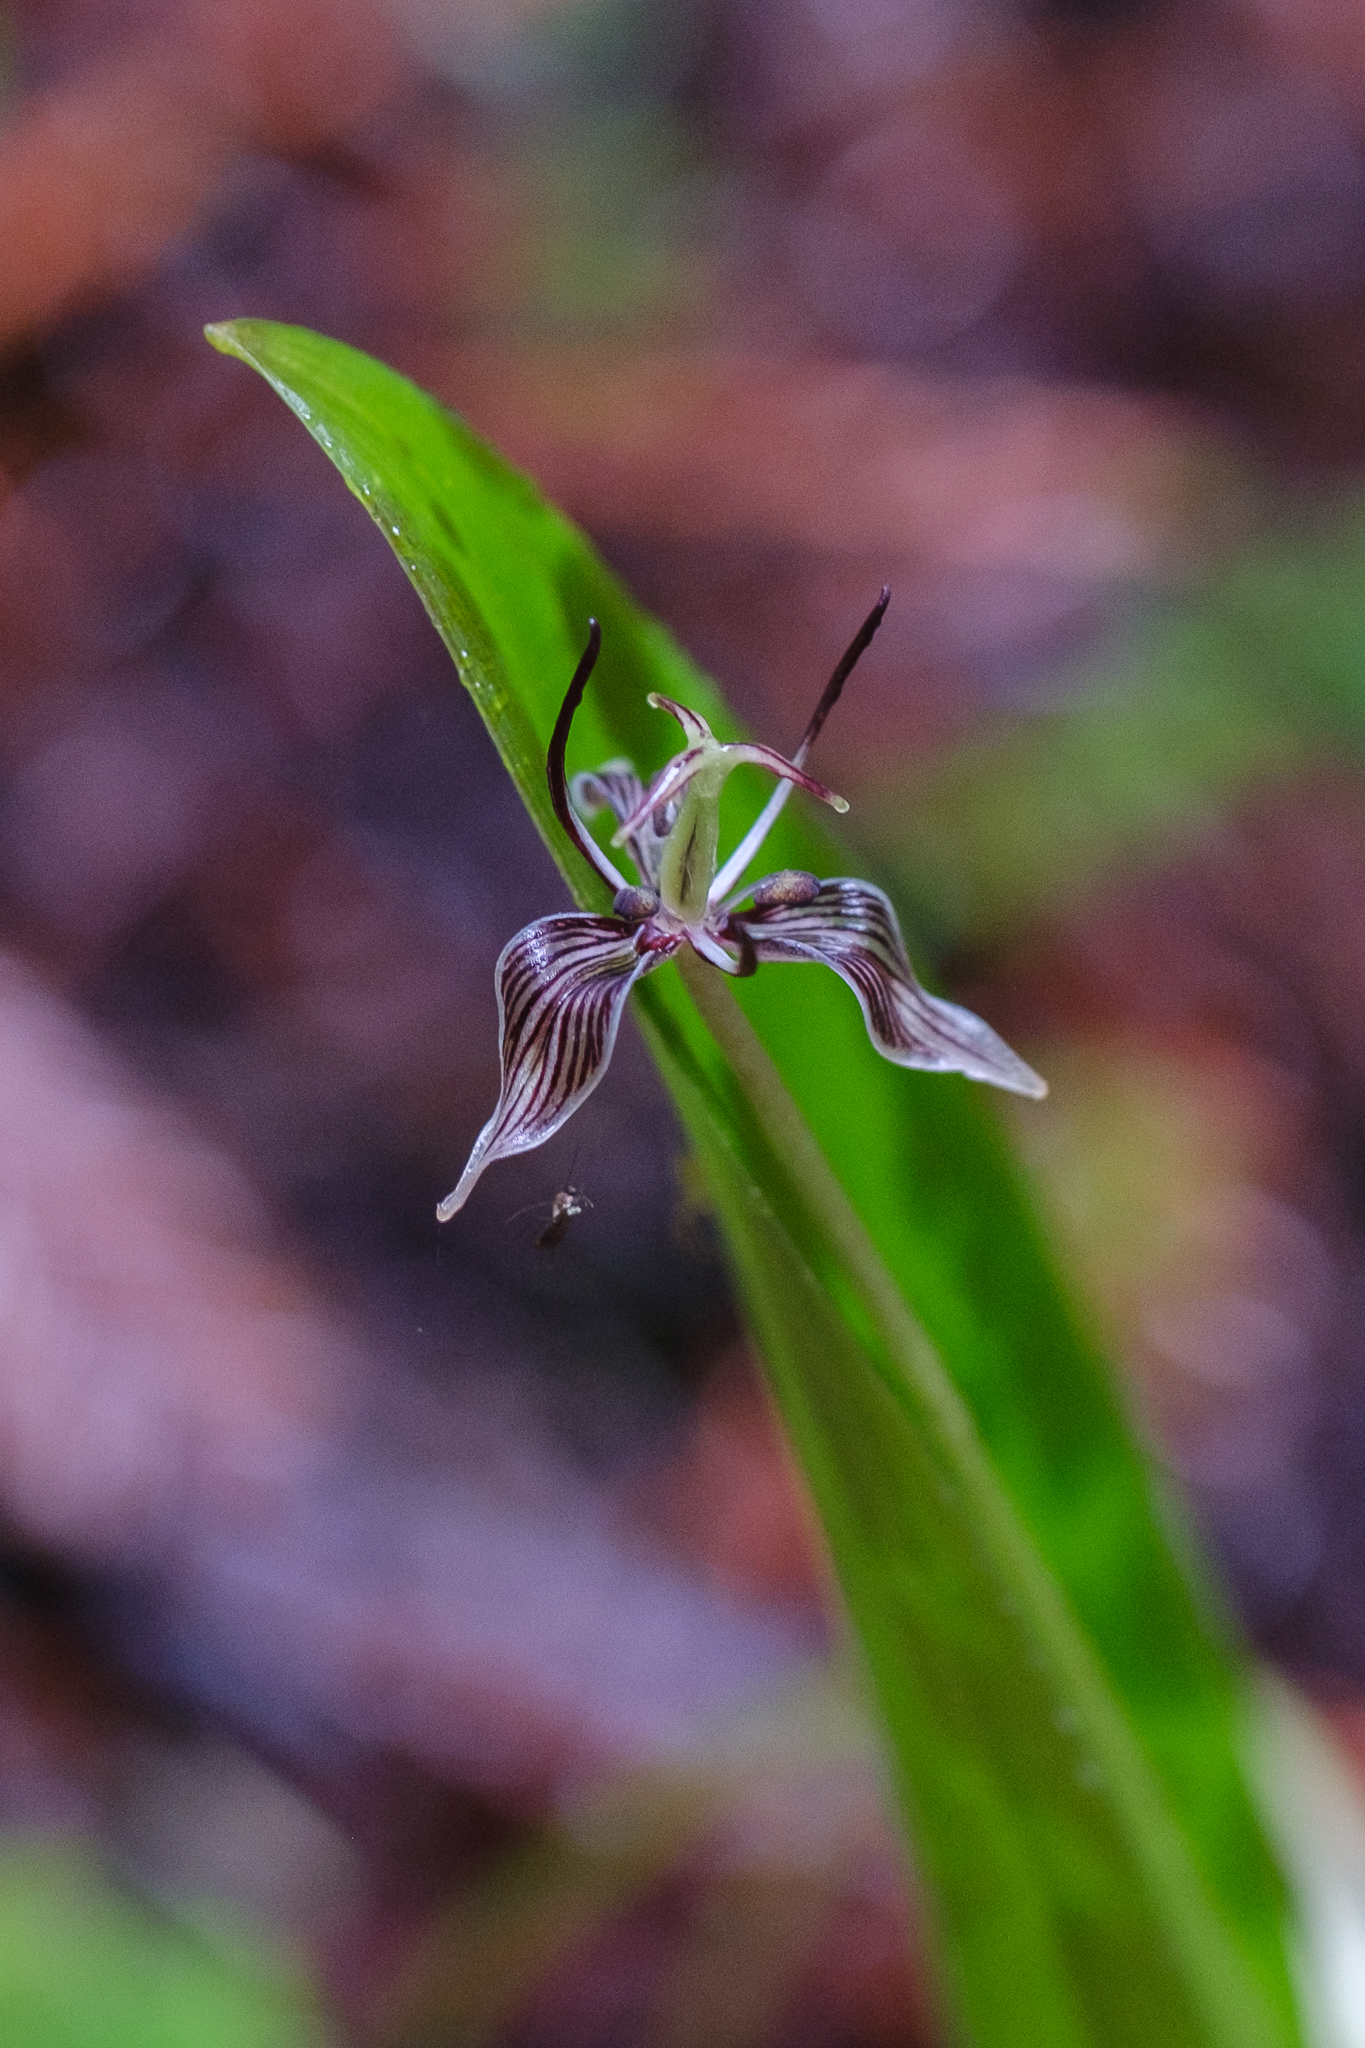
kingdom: Plantae
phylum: Tracheophyta
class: Liliopsida
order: Liliales
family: Liliaceae
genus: Scoliopus
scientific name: Scoliopus bigelovii
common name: Foetid adder's-tongue
